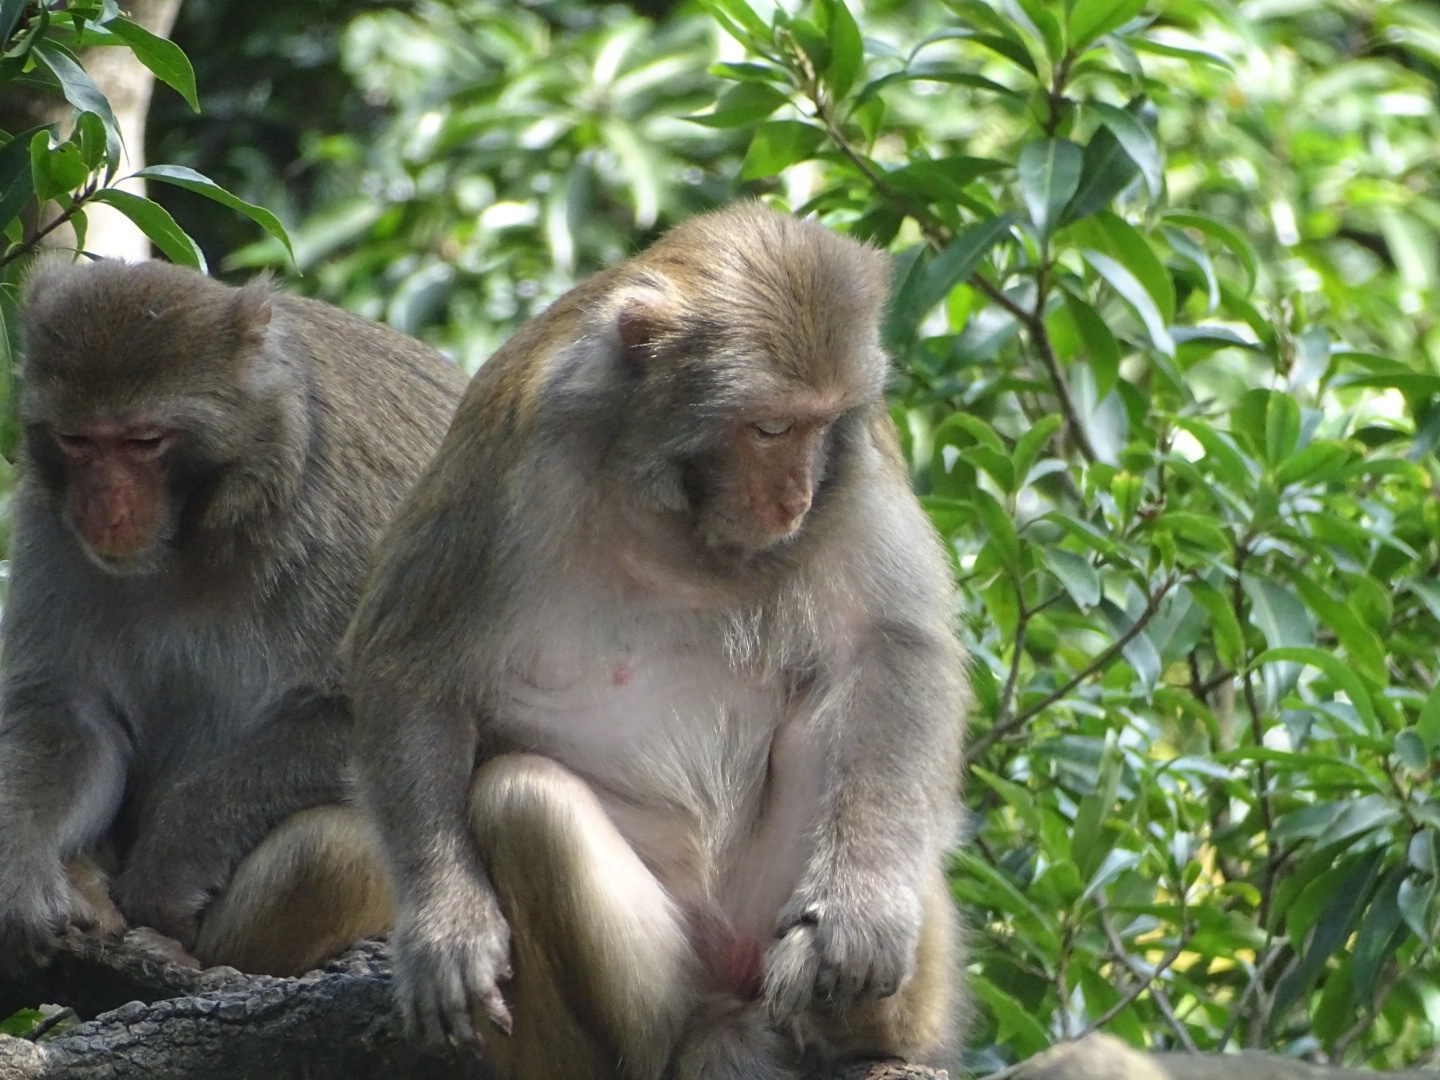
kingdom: Animalia
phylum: Chordata
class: Mammalia
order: Primates
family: Cercopithecidae
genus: Macaca
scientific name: Macaca mulatta
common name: Rhesus monkey
